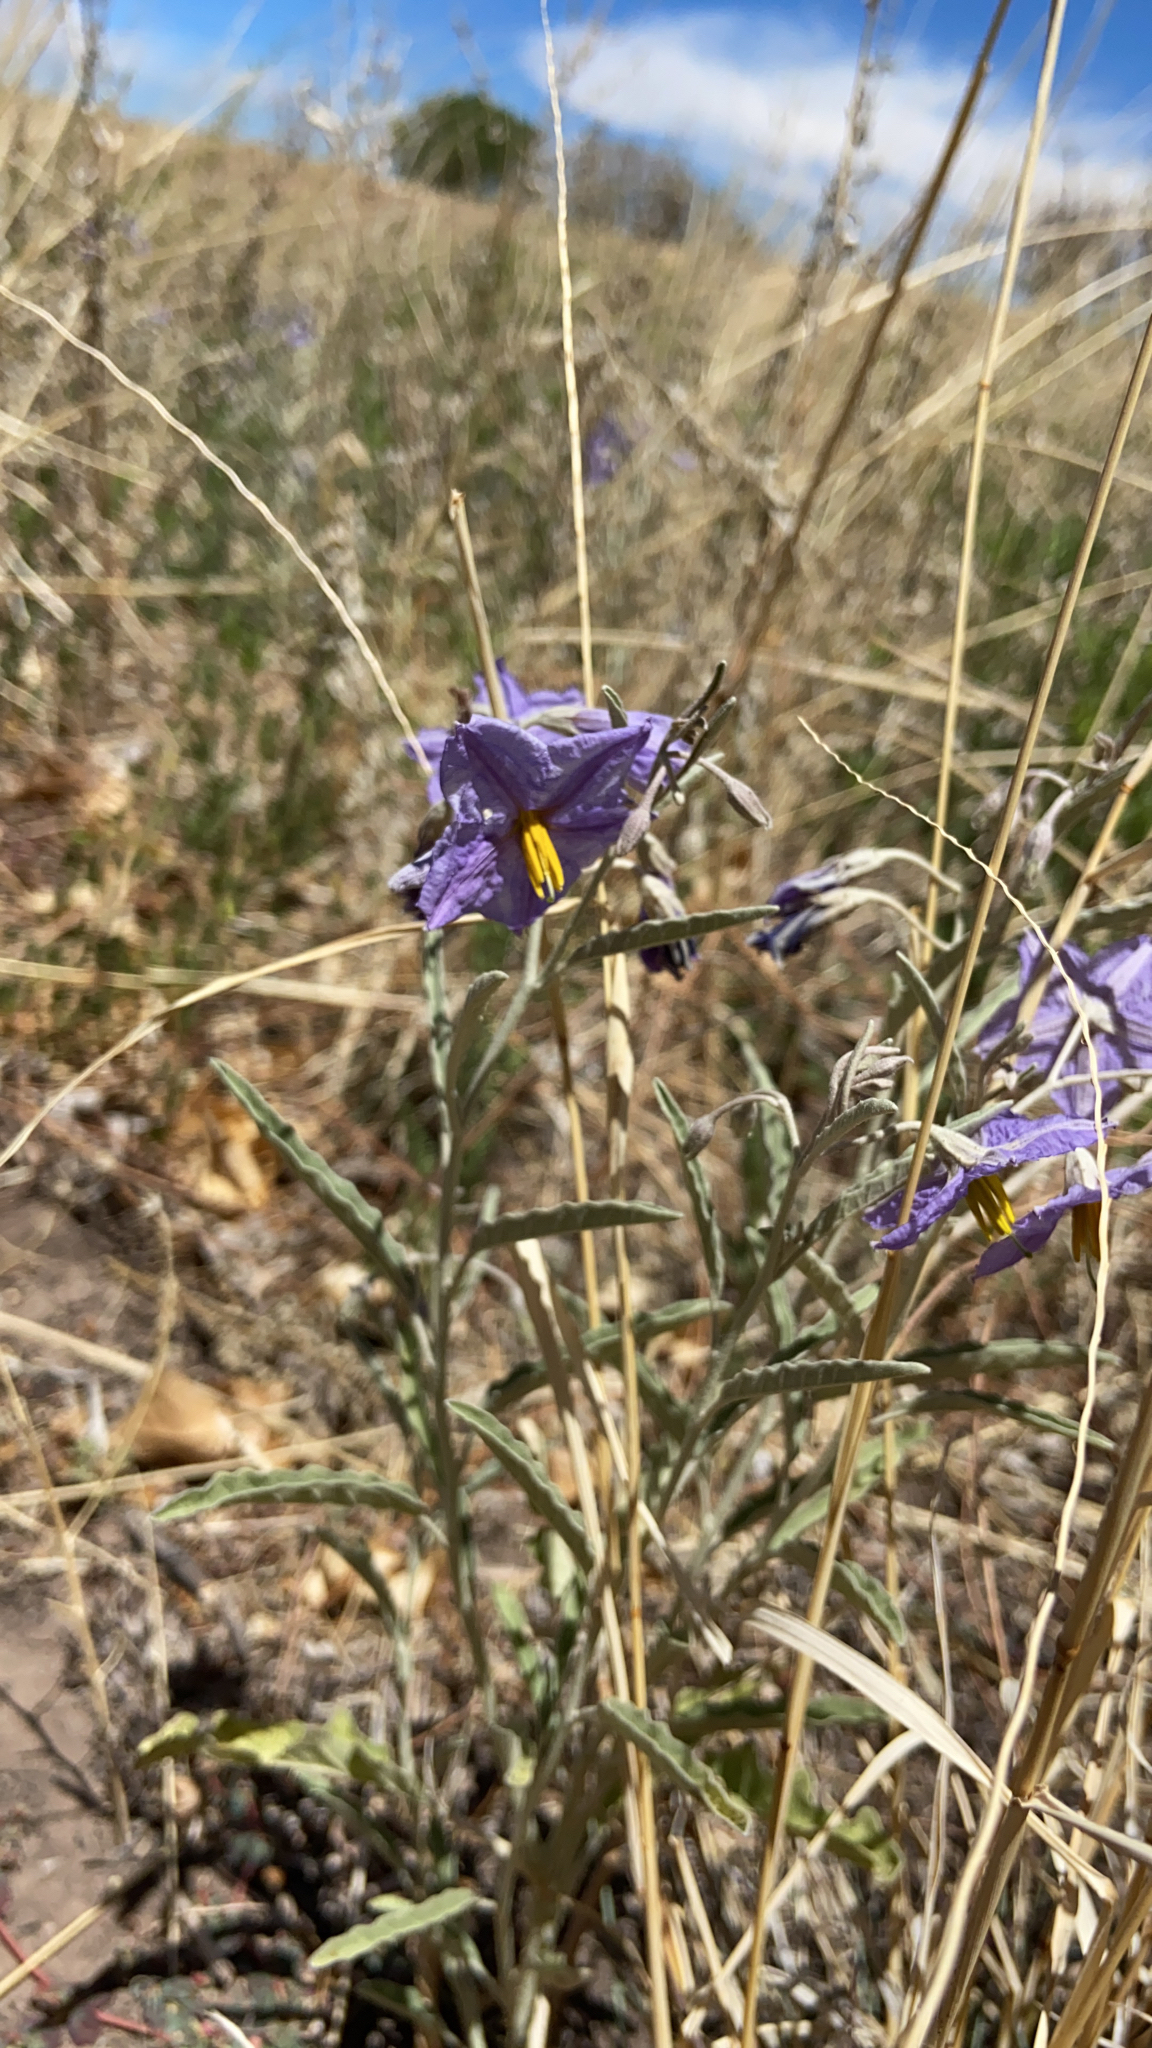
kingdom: Plantae
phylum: Tracheophyta
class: Magnoliopsida
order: Solanales
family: Solanaceae
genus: Solanum
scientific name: Solanum elaeagnifolium
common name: Silverleaf nightshade
